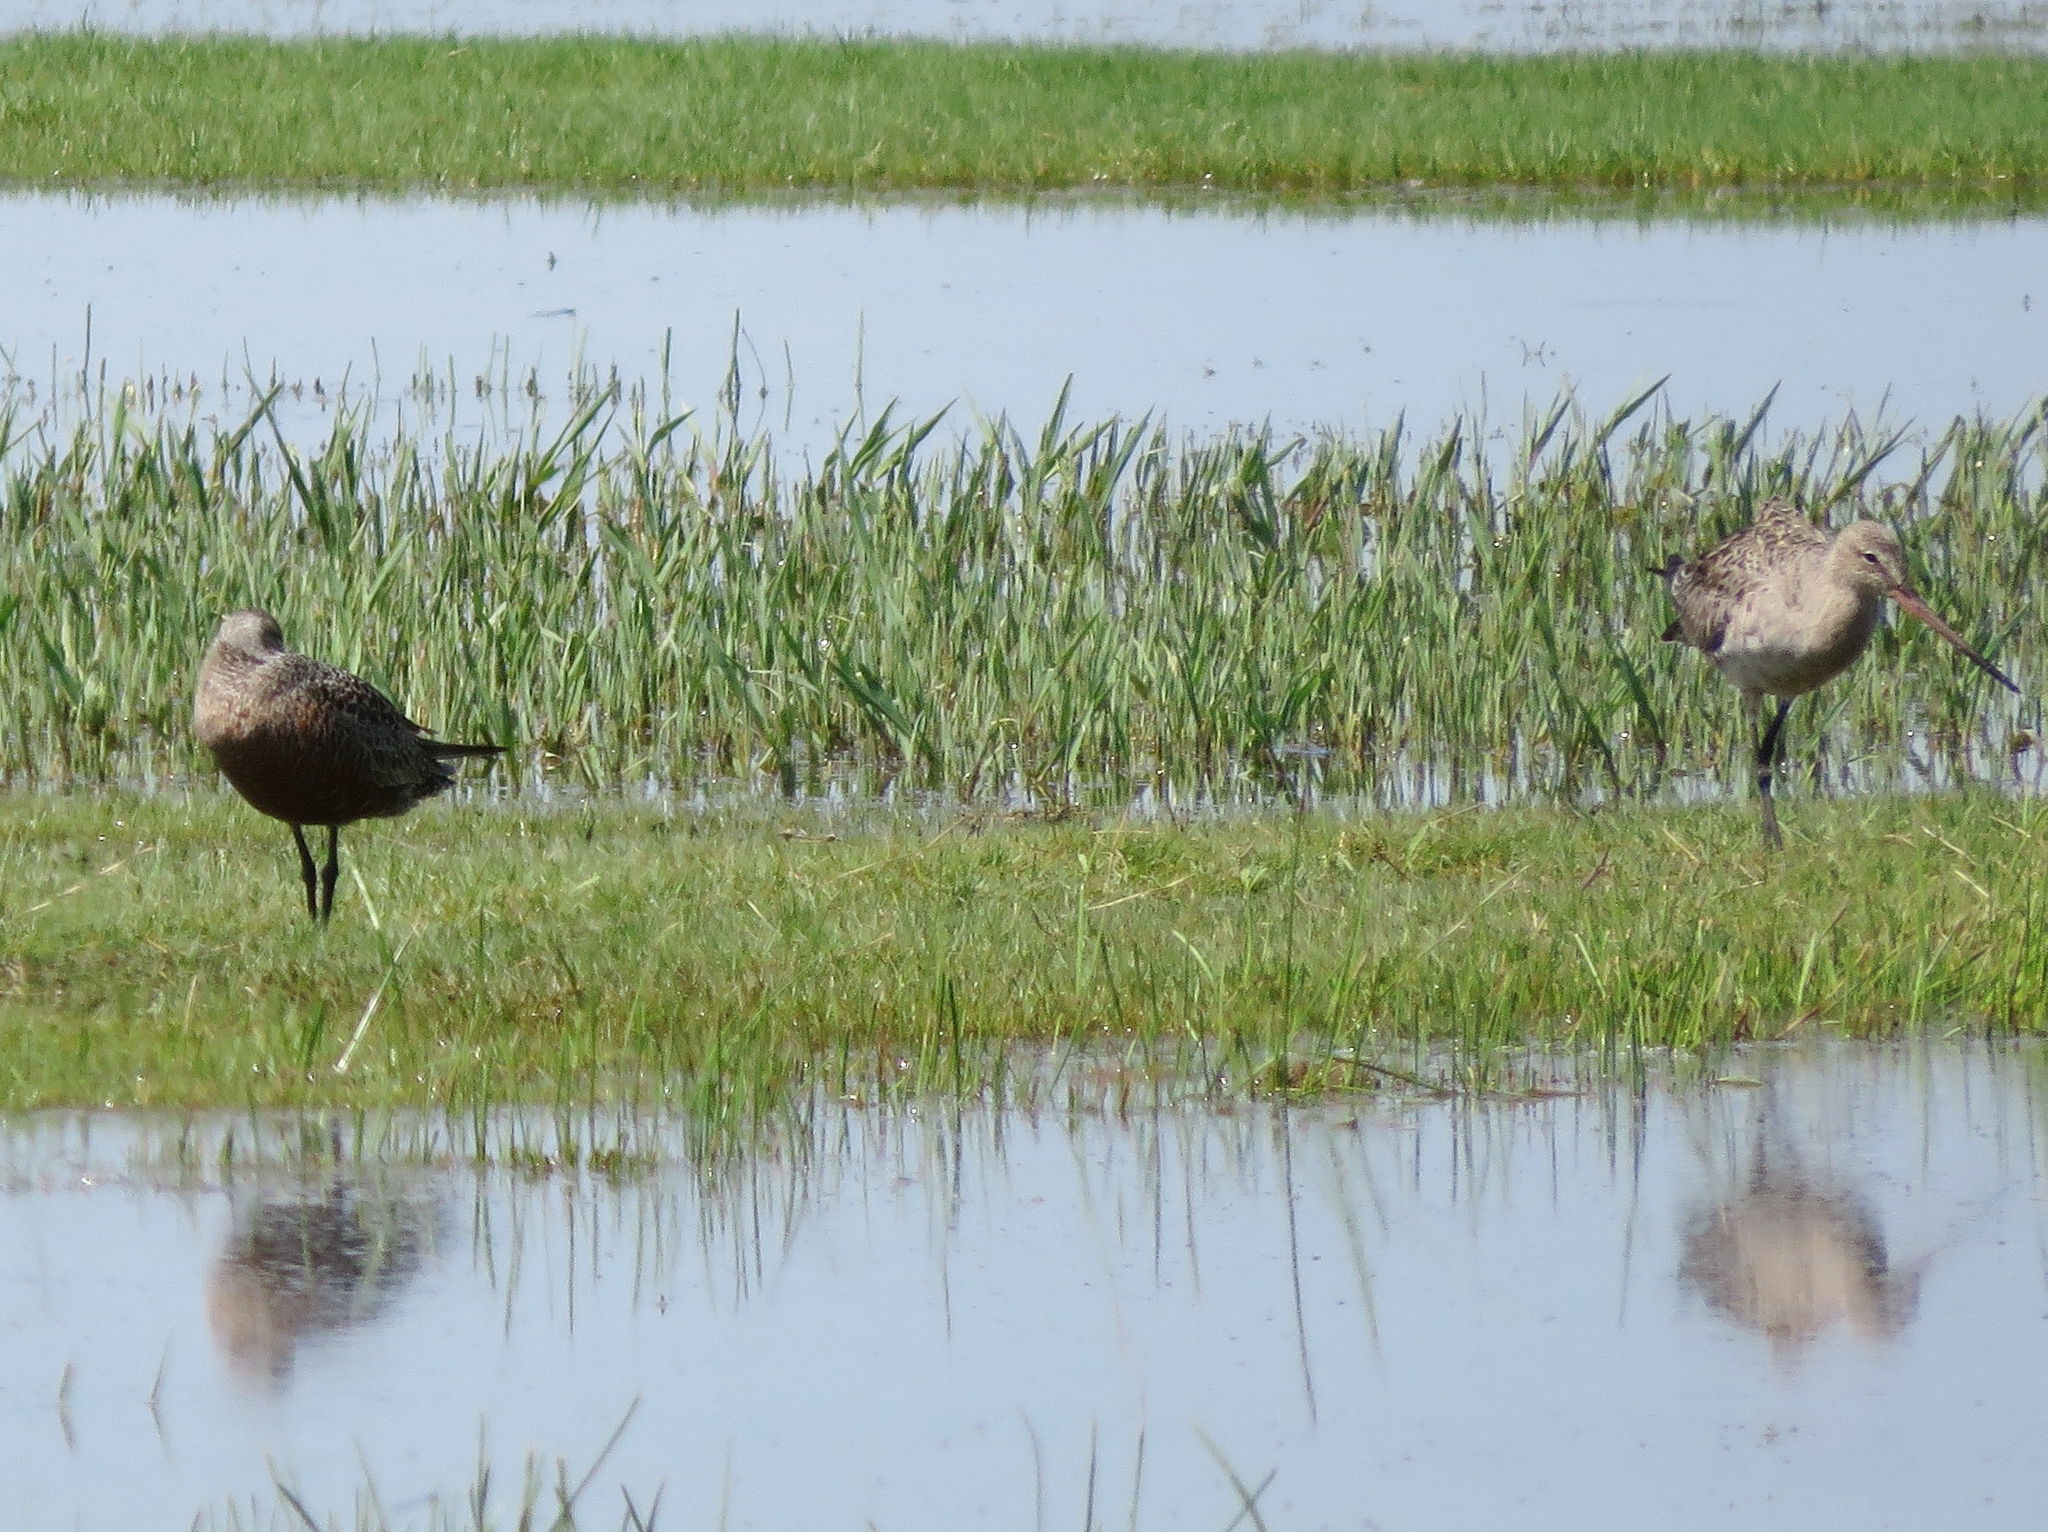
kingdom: Animalia
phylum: Chordata
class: Aves
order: Charadriiformes
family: Scolopacidae
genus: Limosa
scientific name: Limosa haemastica
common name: Hudsonian godwit
